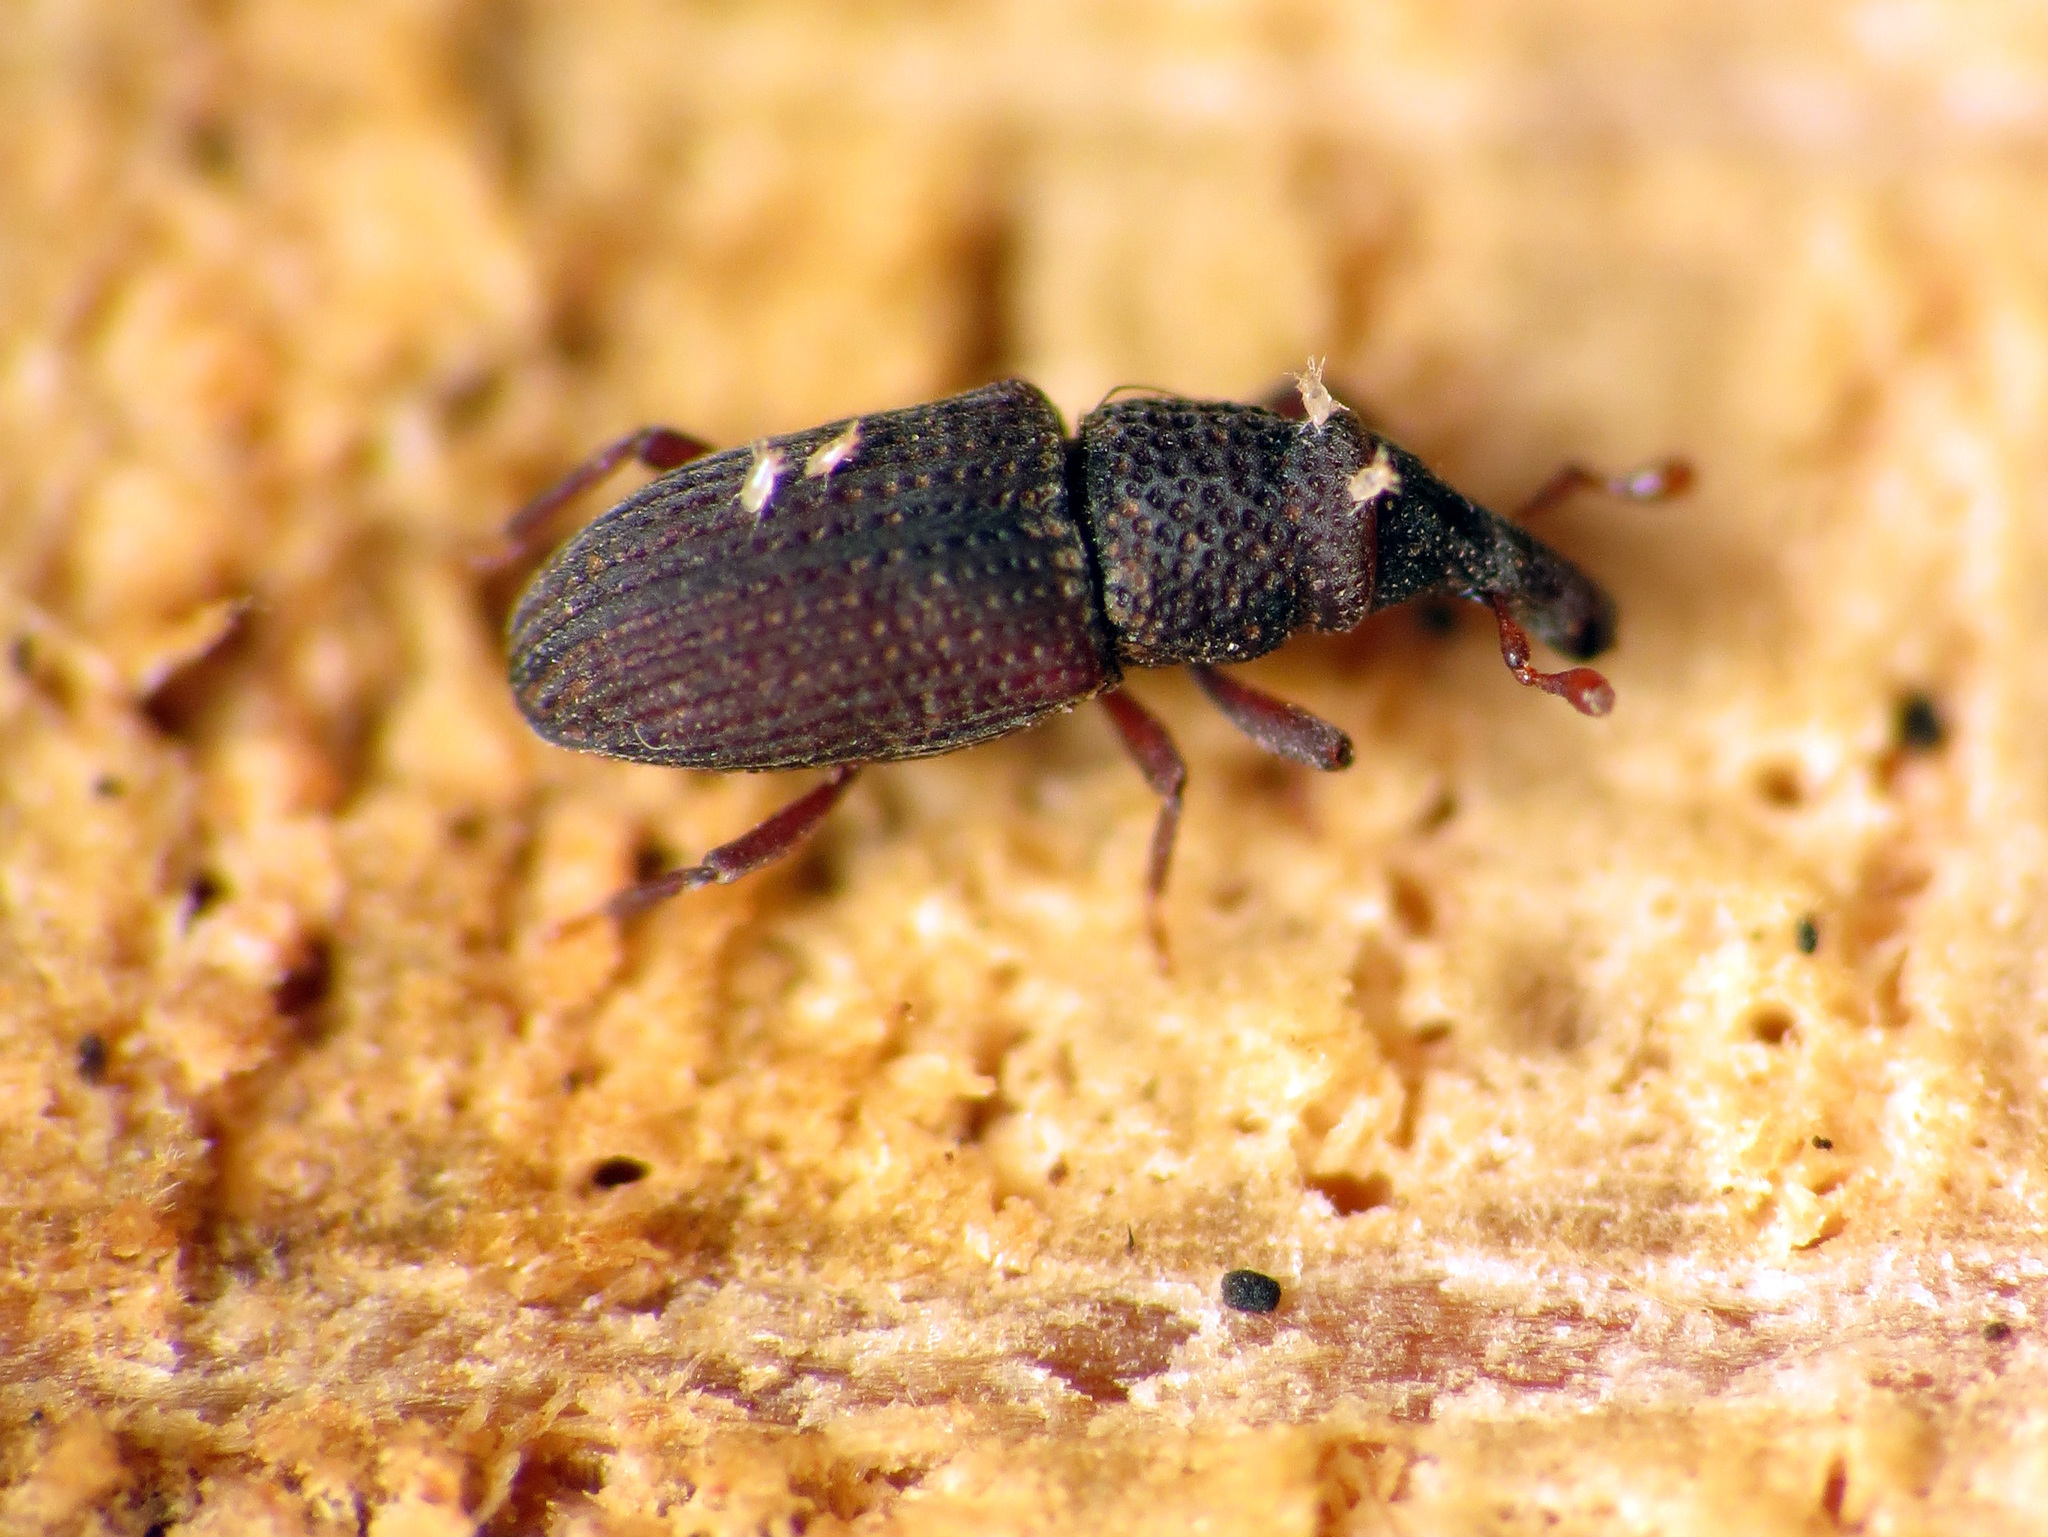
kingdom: Animalia
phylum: Arthropoda
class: Insecta
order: Coleoptera
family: Dryophthoridae
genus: Dryophthorus
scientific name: Dryophthorus americanus
